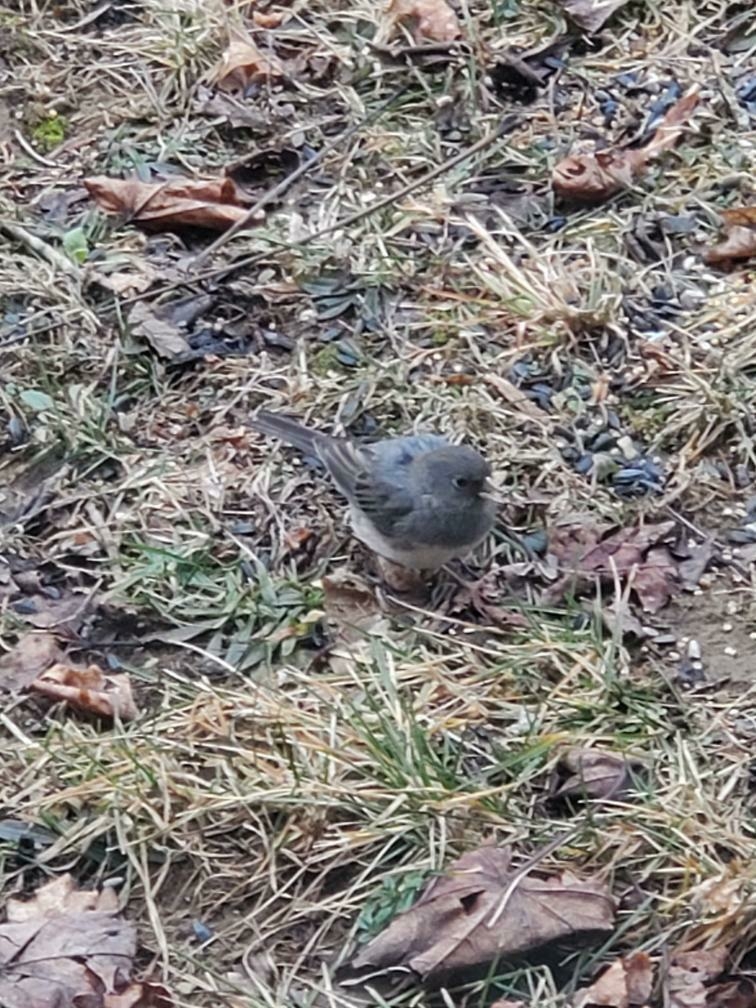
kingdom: Animalia
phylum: Chordata
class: Aves
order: Passeriformes
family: Passerellidae
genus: Junco
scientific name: Junco hyemalis
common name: Dark-eyed junco
